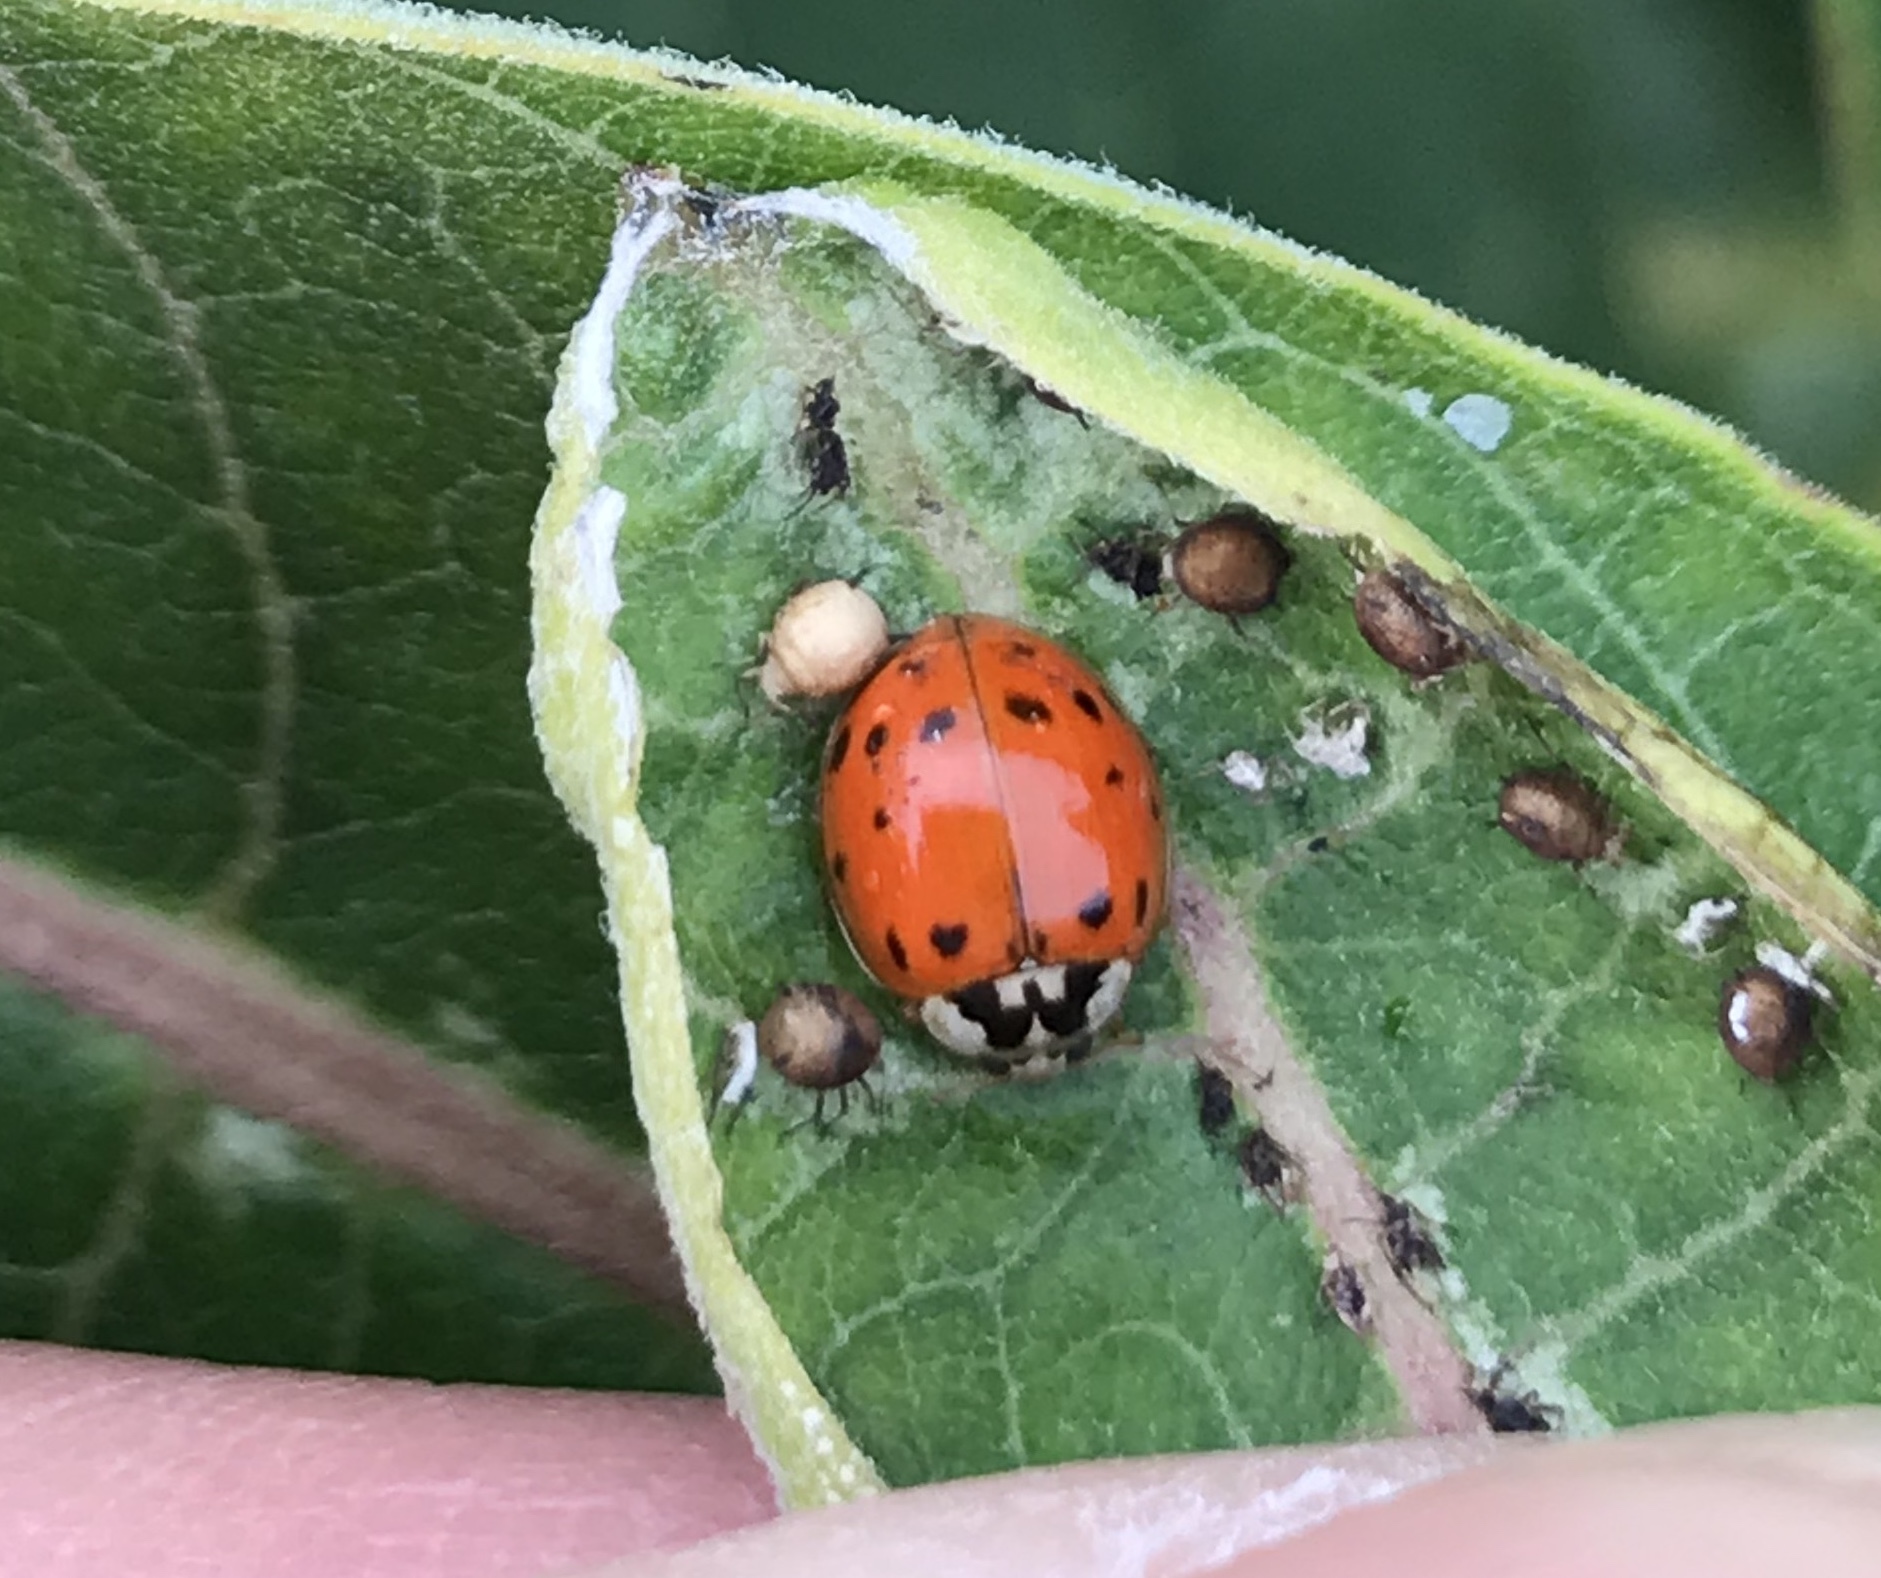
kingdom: Animalia
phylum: Arthropoda
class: Insecta
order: Coleoptera
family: Coccinellidae
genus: Harmonia
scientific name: Harmonia axyridis
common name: Harlequin ladybird
